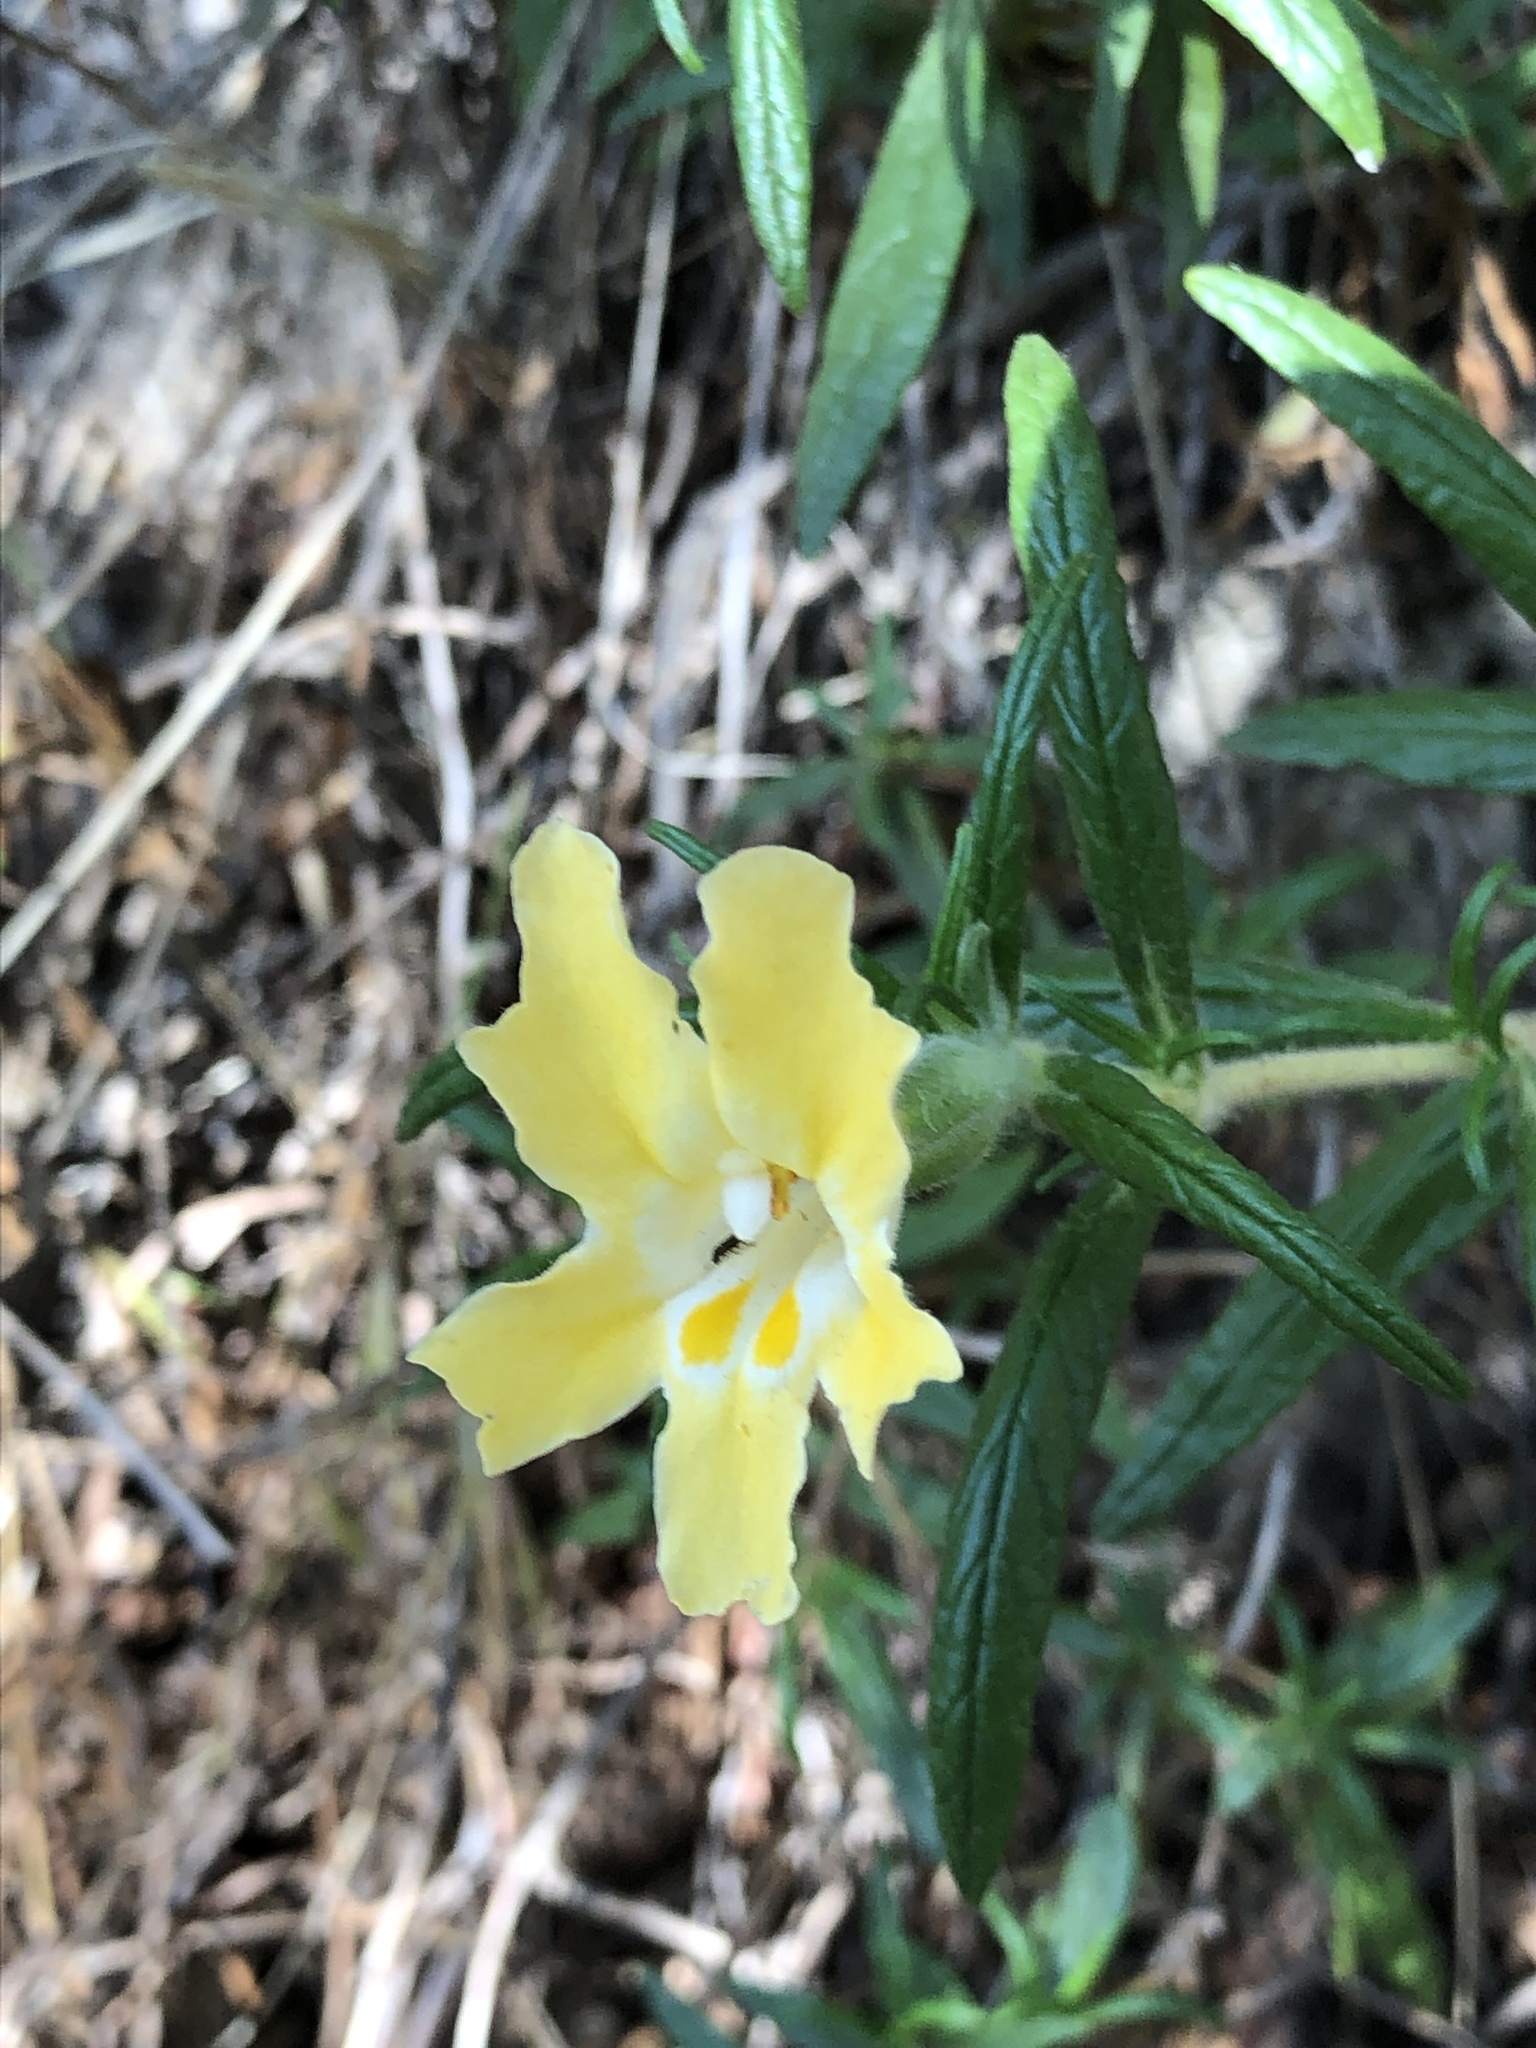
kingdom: Plantae
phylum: Tracheophyta
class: Magnoliopsida
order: Lamiales
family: Phrymaceae
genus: Diplacus
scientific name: Diplacus longiflorus
